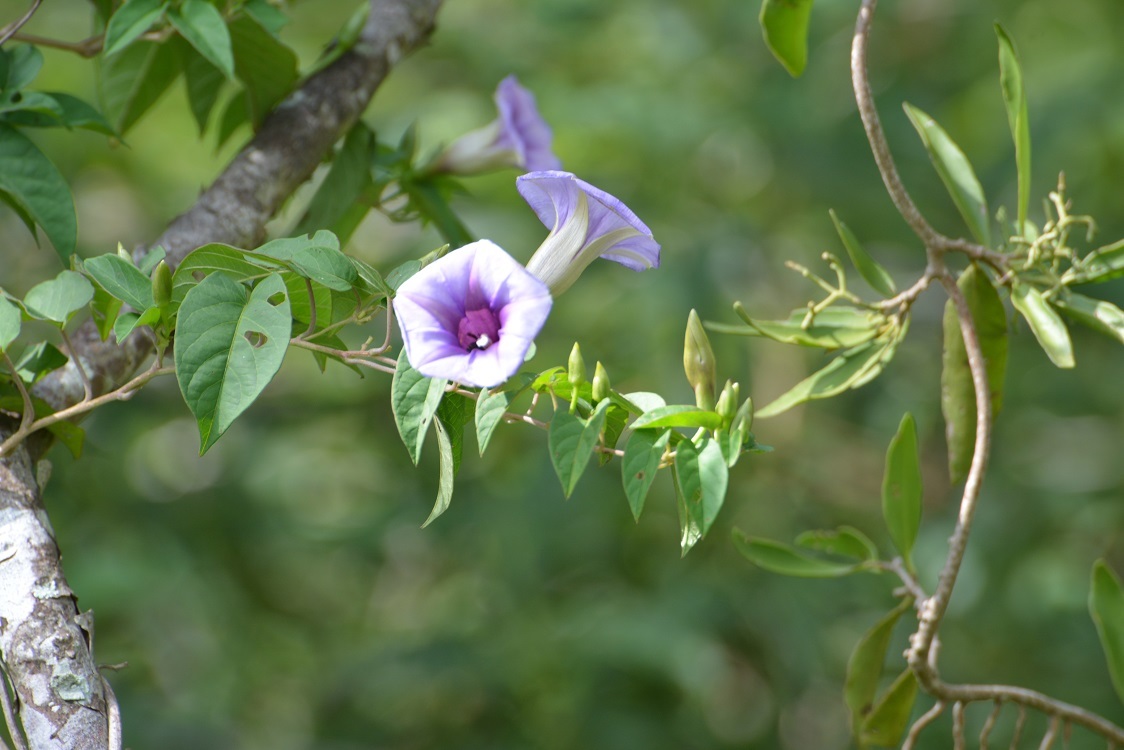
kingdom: Plantae
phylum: Tracheophyta
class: Magnoliopsida
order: Solanales
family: Convolvulaceae
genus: Ipomoea
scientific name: Ipomoea lindenii
